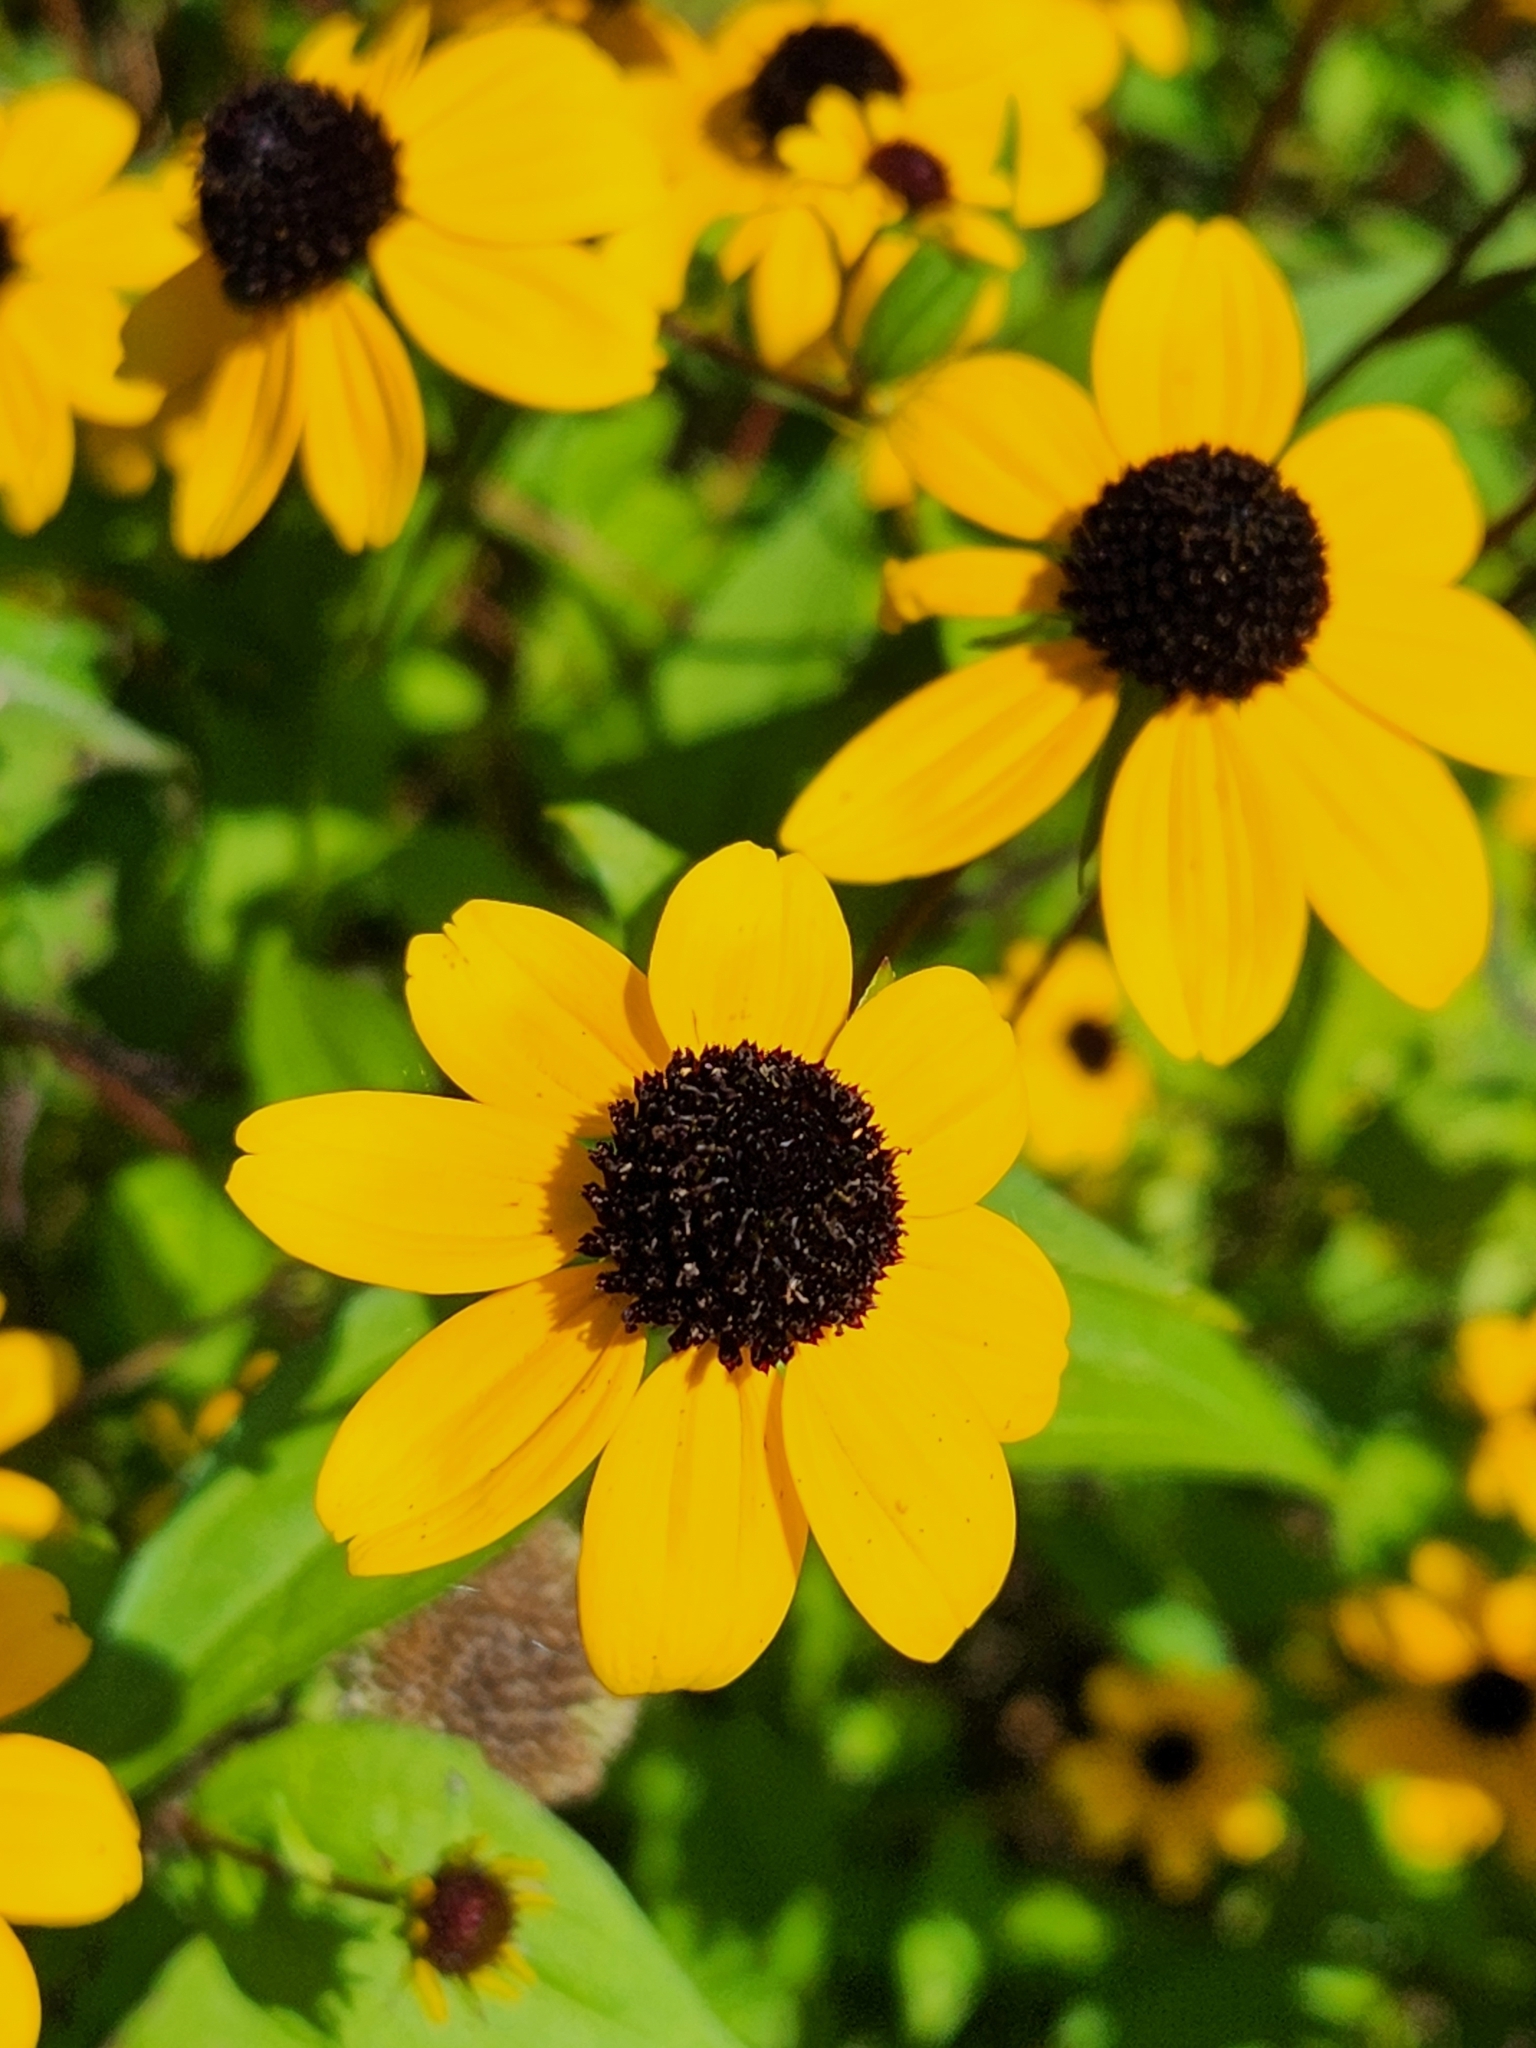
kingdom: Plantae
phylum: Tracheophyta
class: Magnoliopsida
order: Asterales
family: Asteraceae
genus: Rudbeckia
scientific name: Rudbeckia triloba
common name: Thin-leaved coneflower
